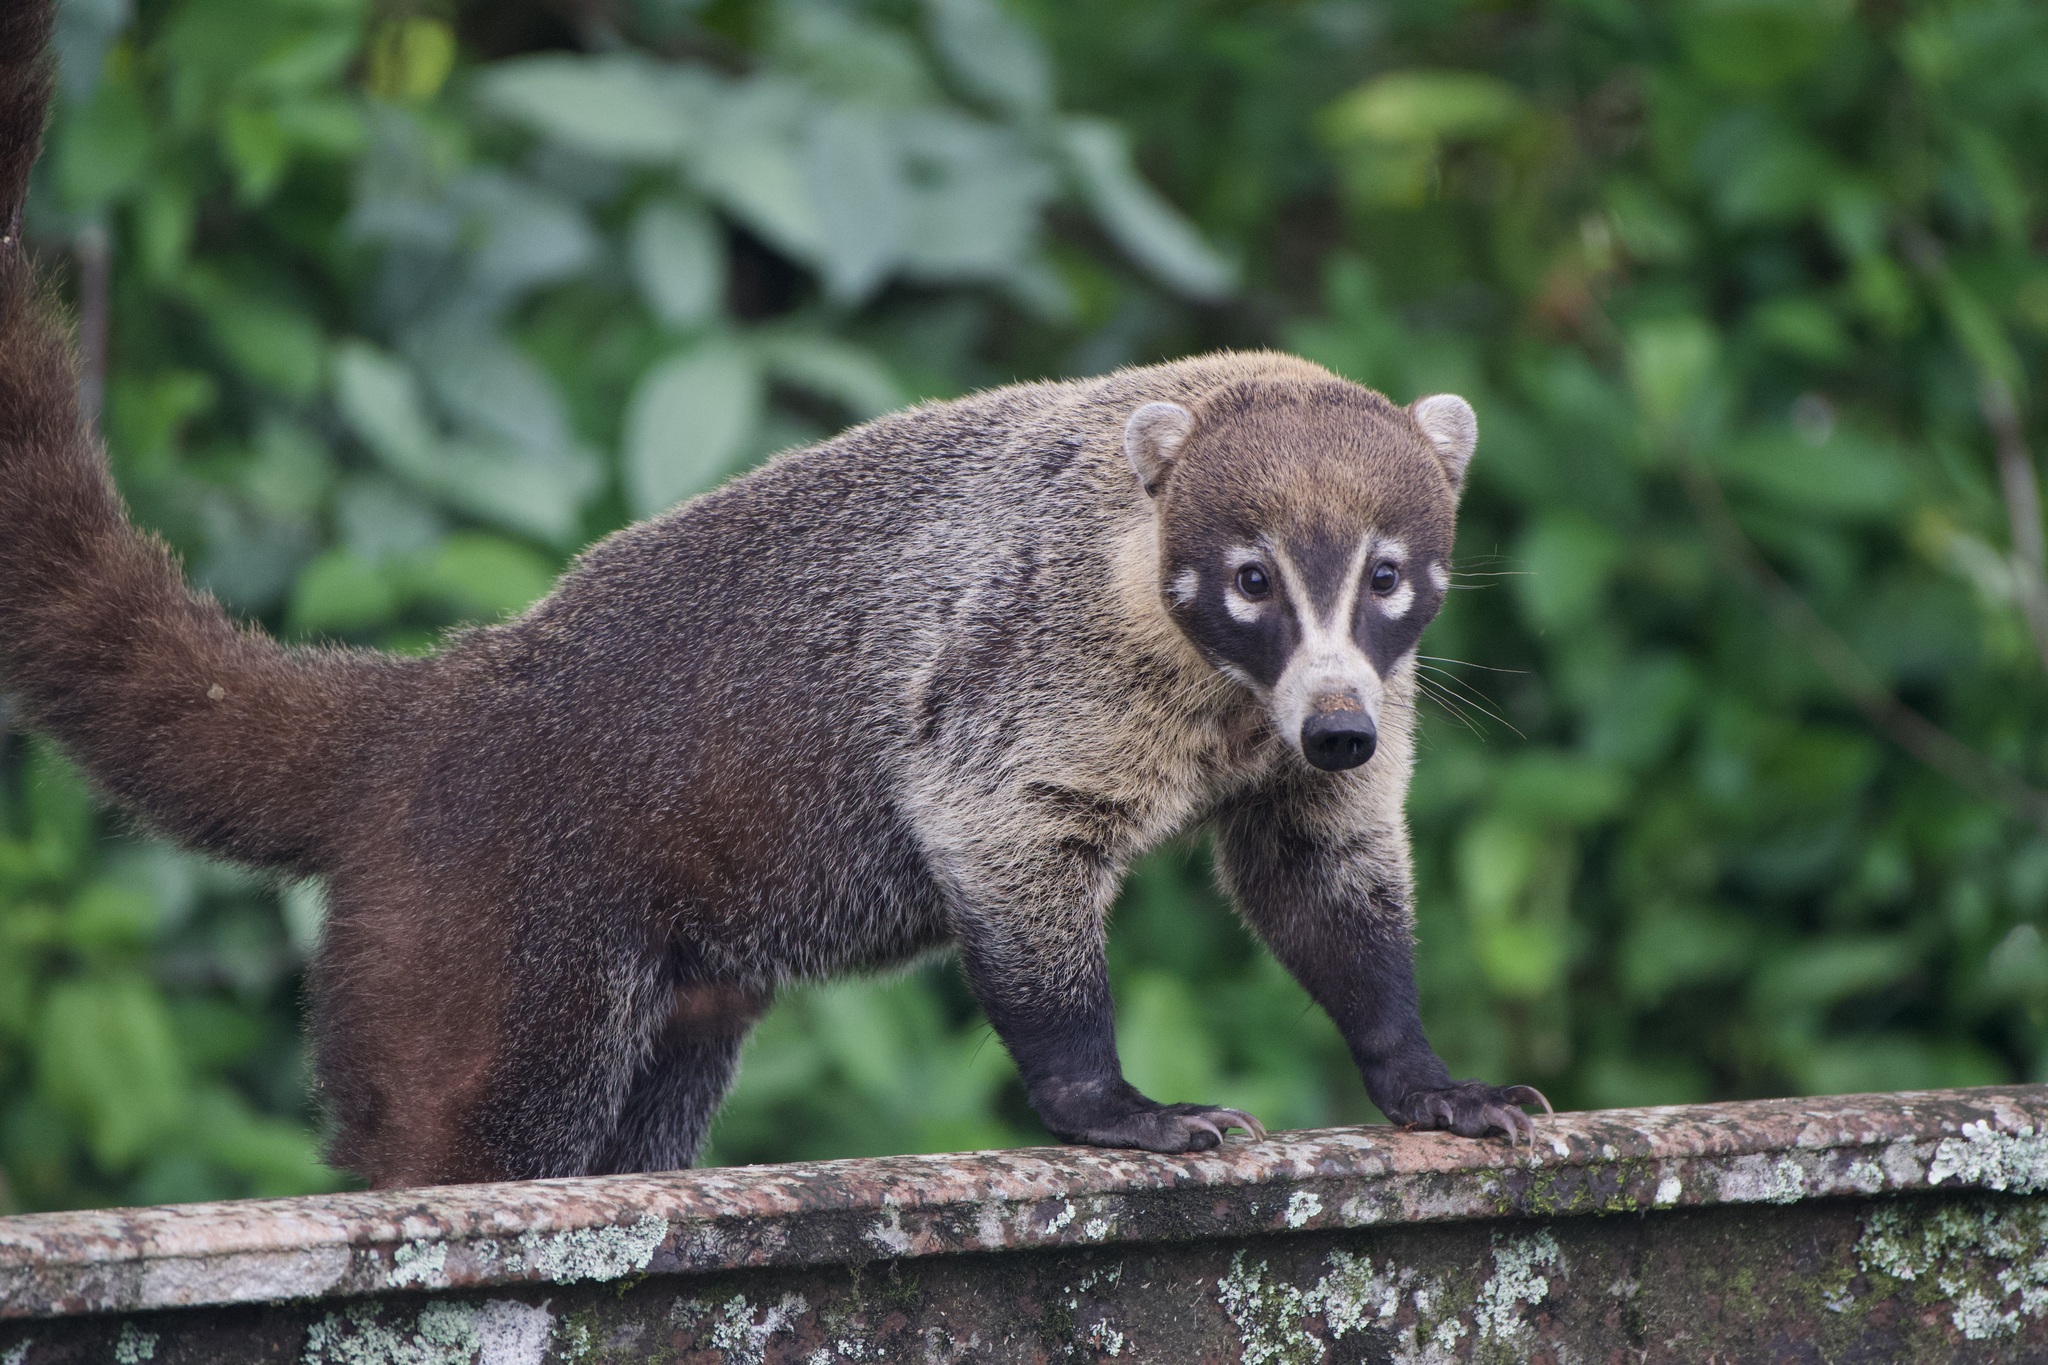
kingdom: Animalia
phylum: Chordata
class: Mammalia
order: Carnivora
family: Procyonidae
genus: Nasua
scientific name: Nasua narica
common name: White-nosed coati
